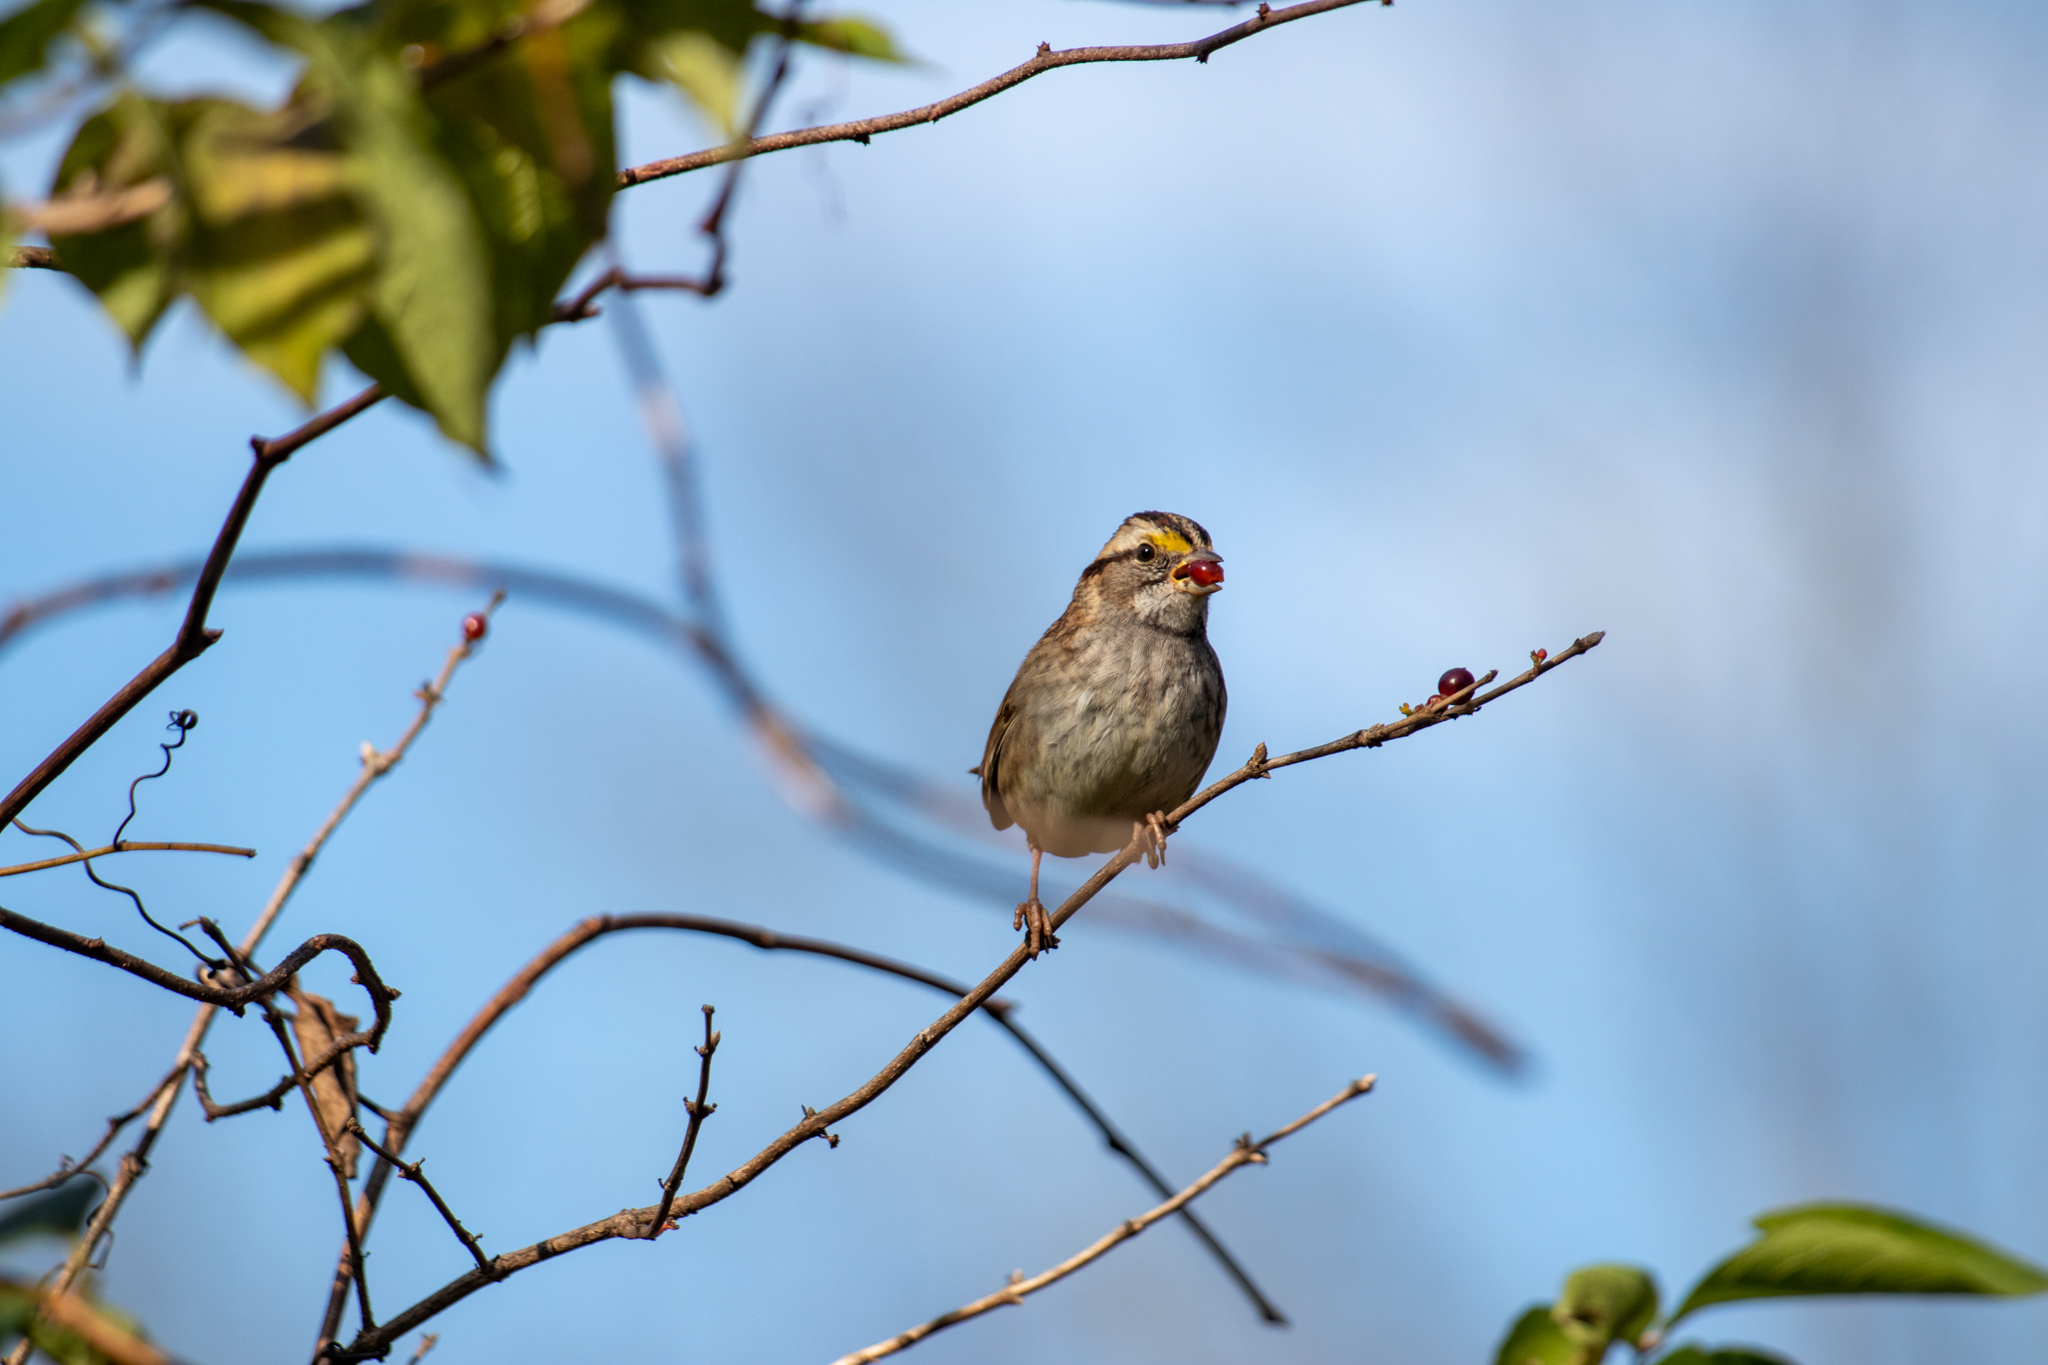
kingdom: Animalia
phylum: Chordata
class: Aves
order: Passeriformes
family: Passerellidae
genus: Zonotrichia
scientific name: Zonotrichia albicollis
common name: White-throated sparrow
